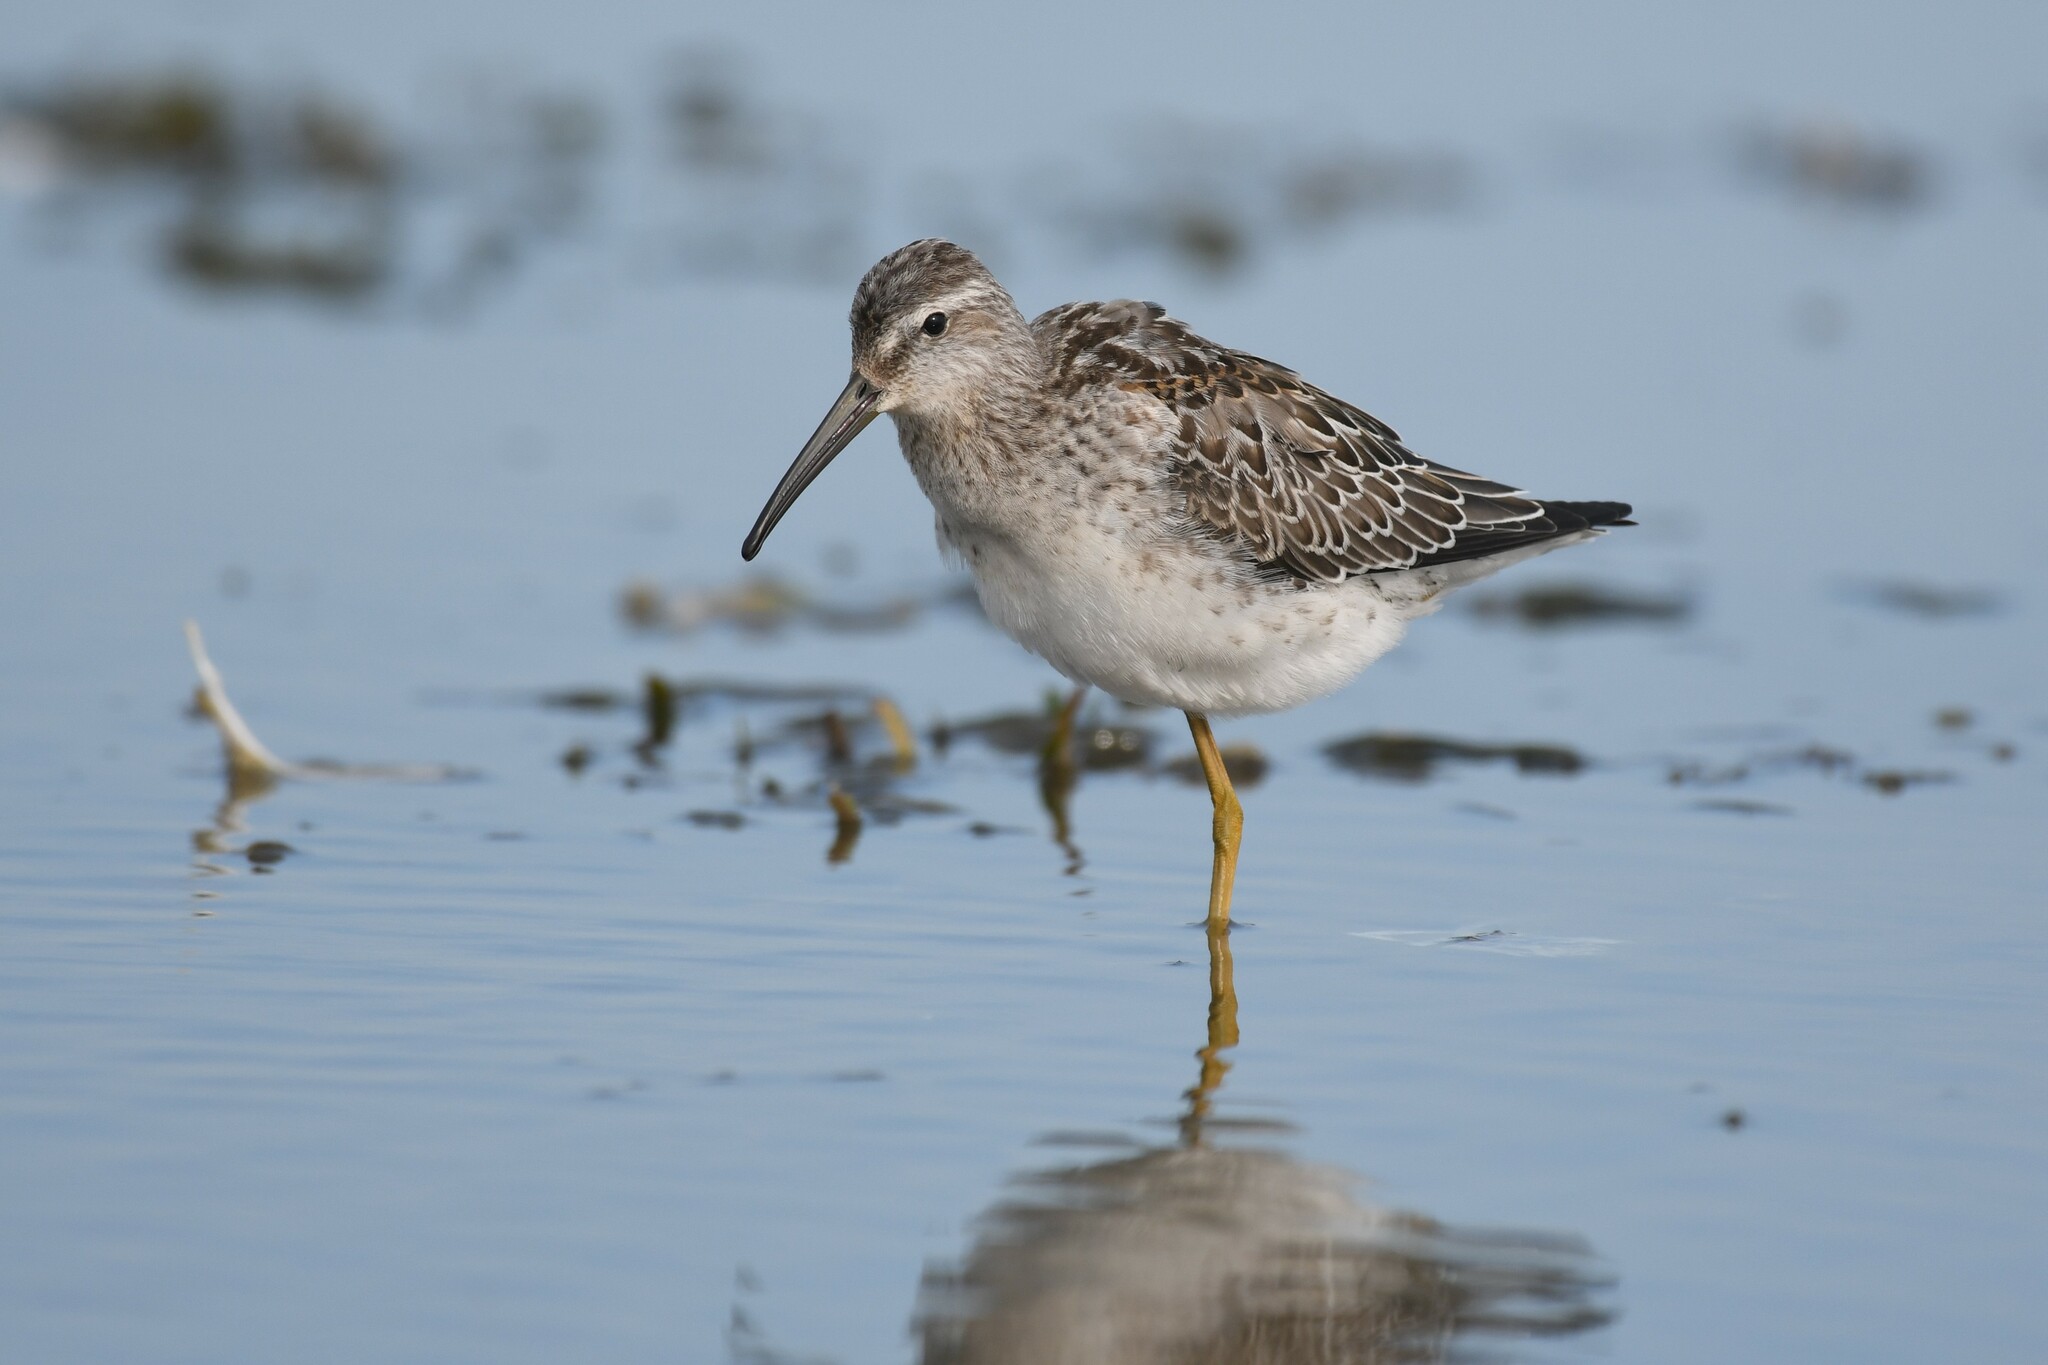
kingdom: Animalia
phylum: Chordata
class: Aves
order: Charadriiformes
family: Scolopacidae
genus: Calidris
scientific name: Calidris himantopus
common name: Stilt sandpiper
